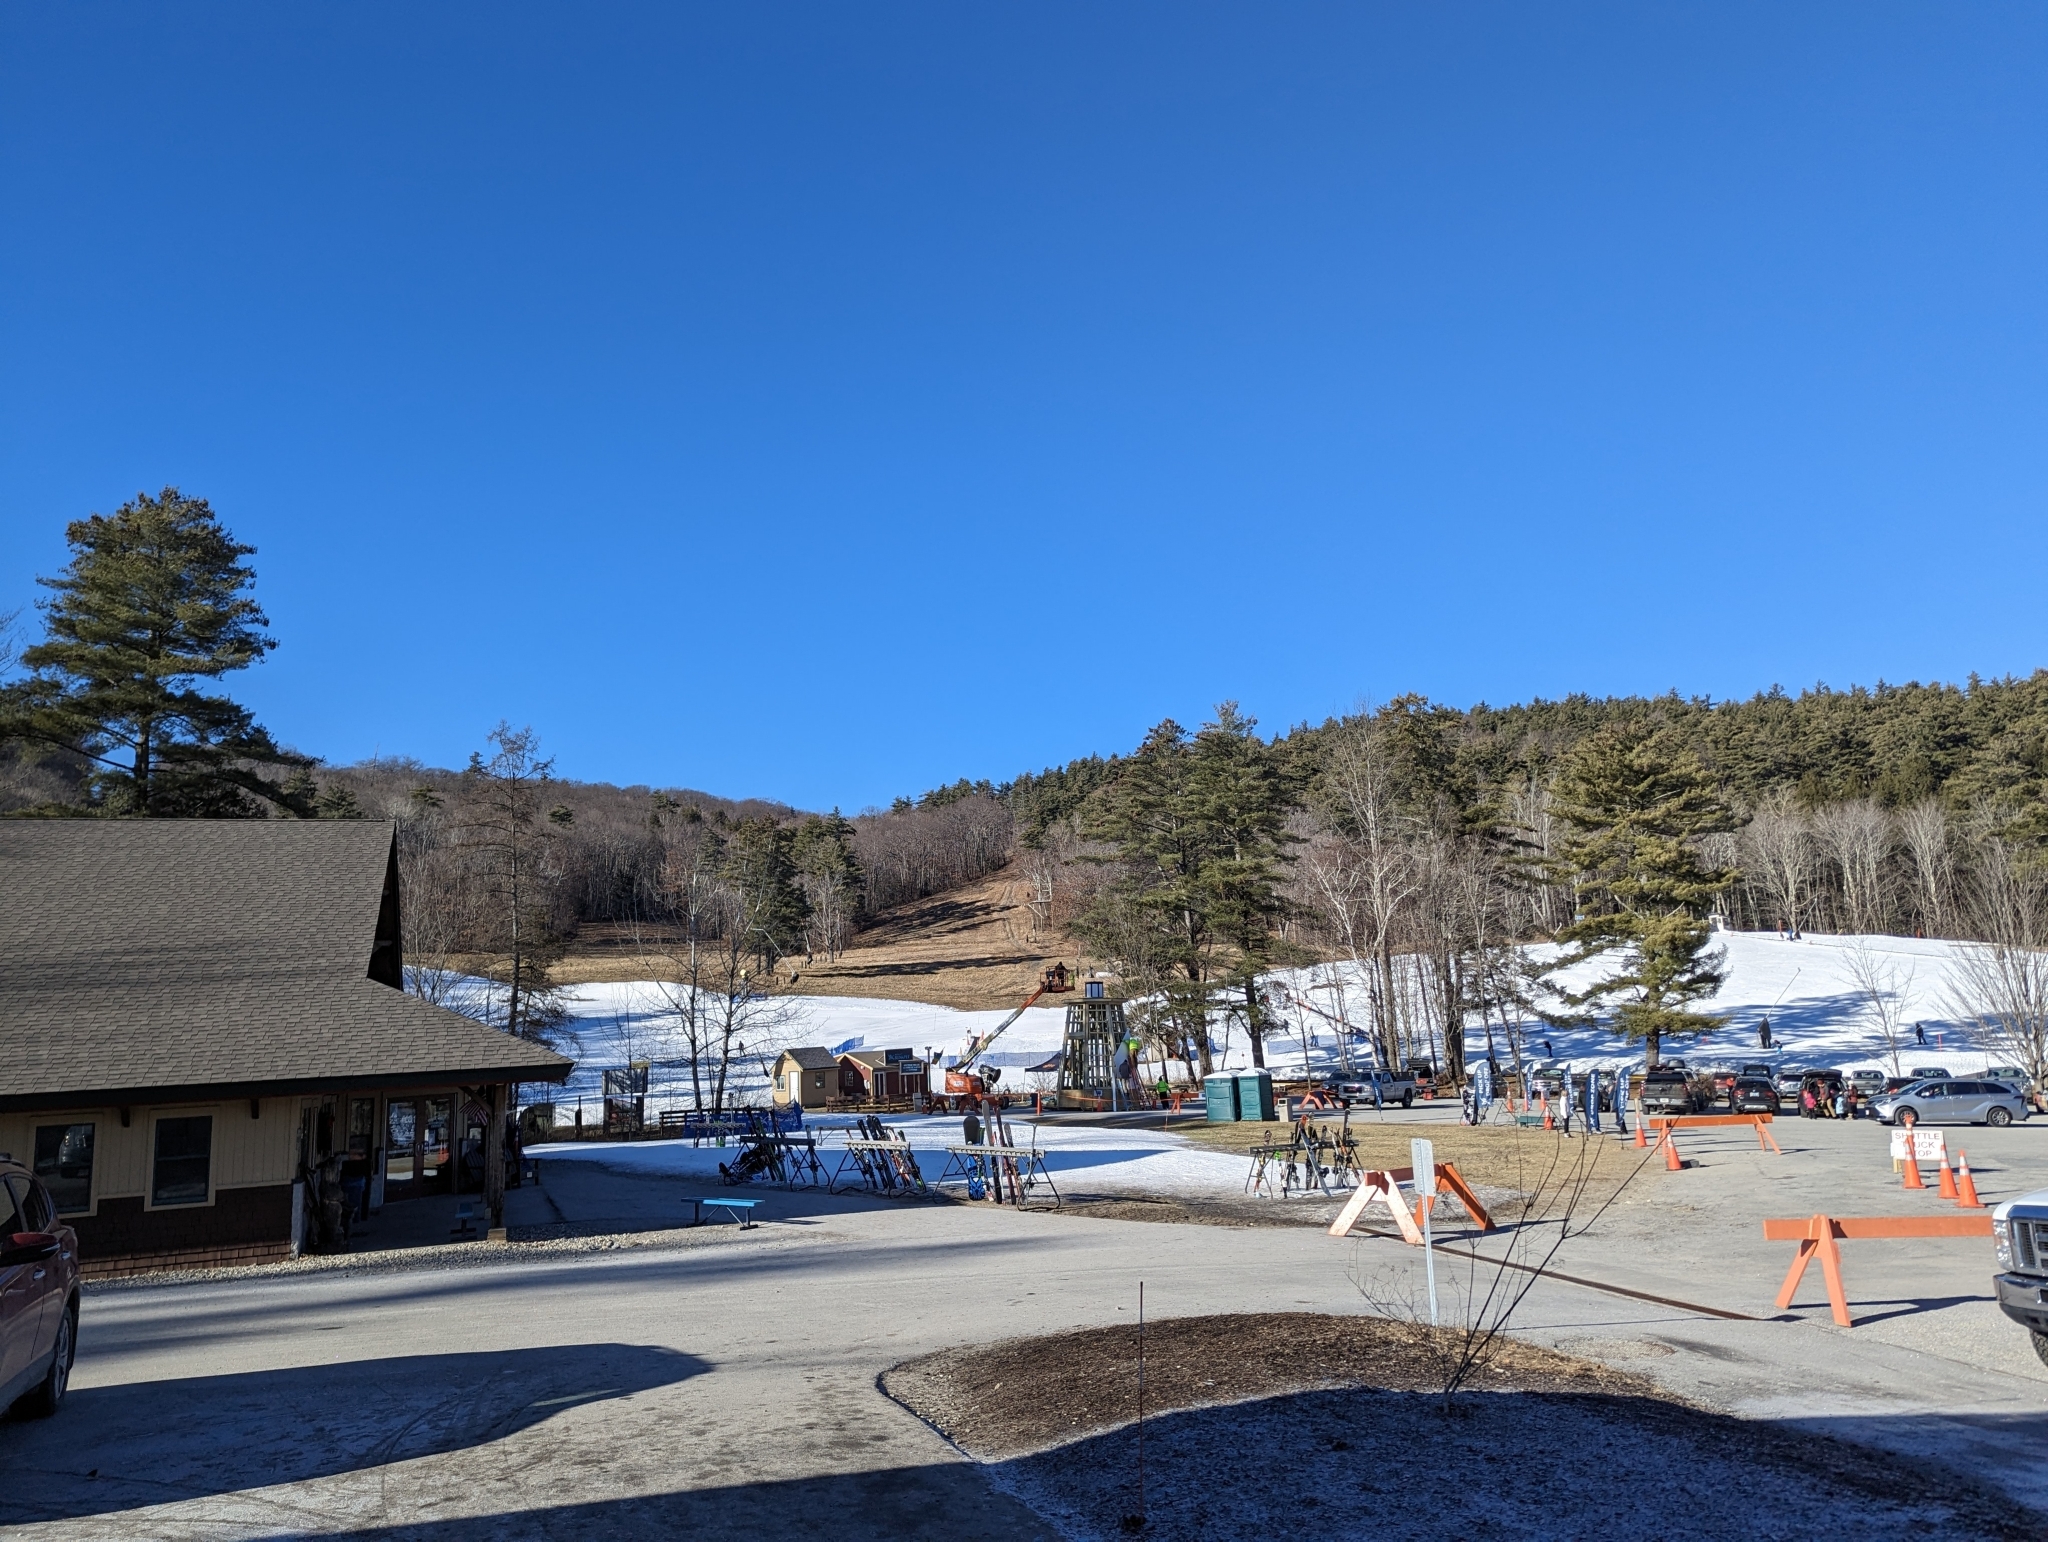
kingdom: Plantae
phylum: Tracheophyta
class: Pinopsida
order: Pinales
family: Pinaceae
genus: Pinus
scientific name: Pinus strobus
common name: Weymouth pine
